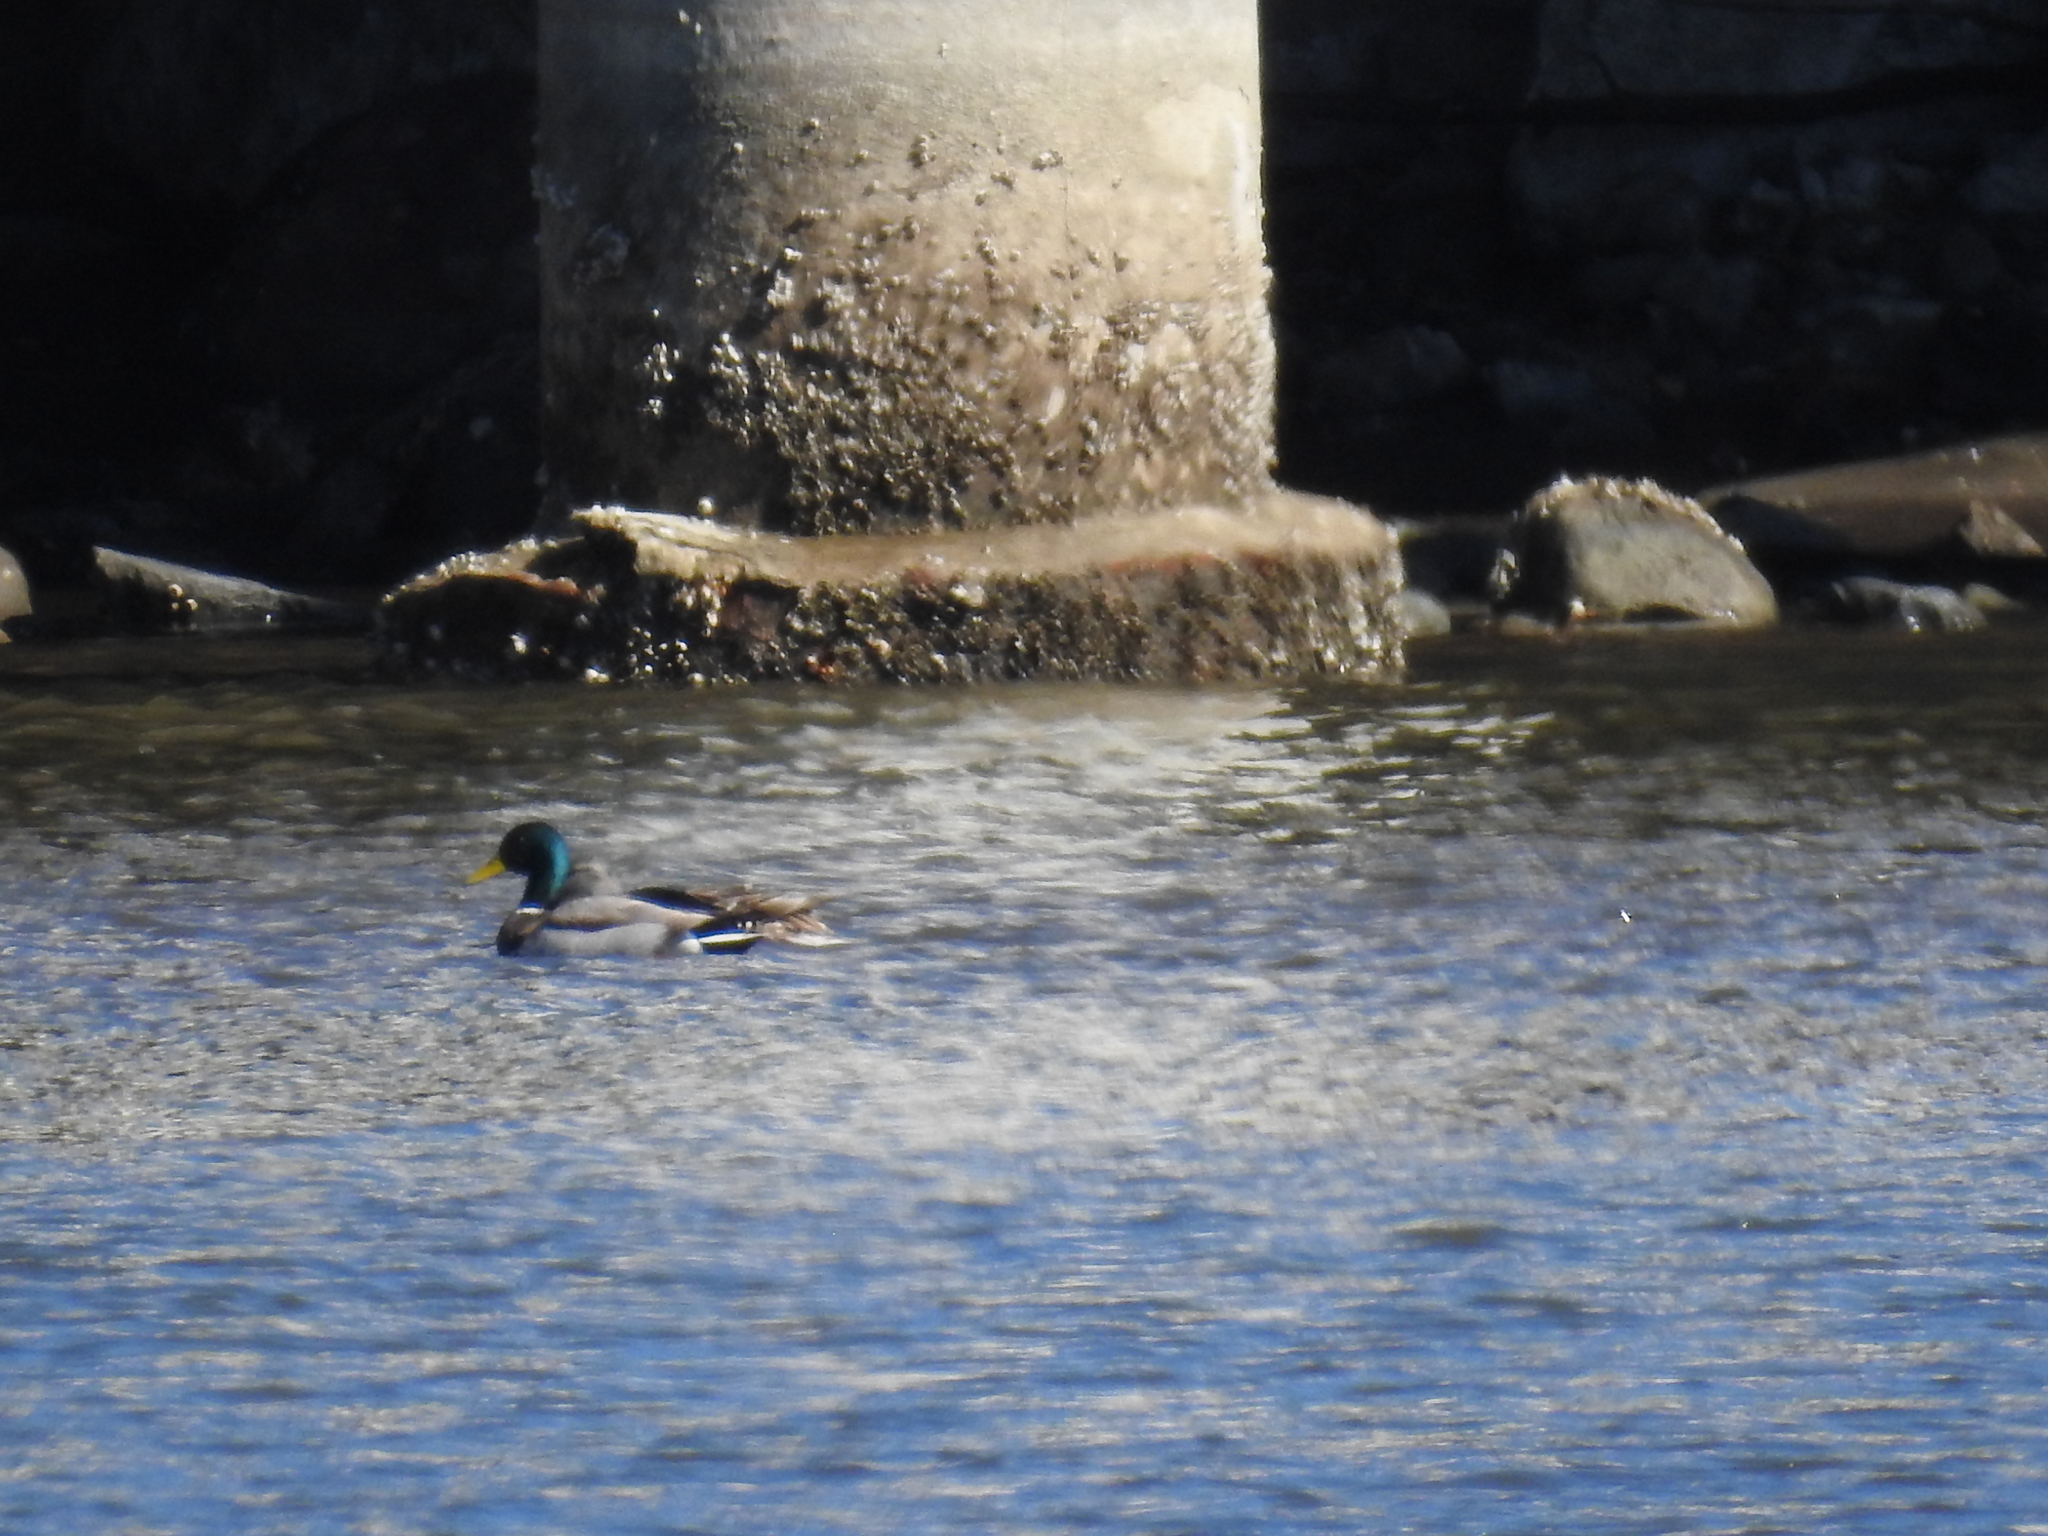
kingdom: Animalia
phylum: Chordata
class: Aves
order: Anseriformes
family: Anatidae
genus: Anas
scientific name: Anas platyrhynchos
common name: Mallard
